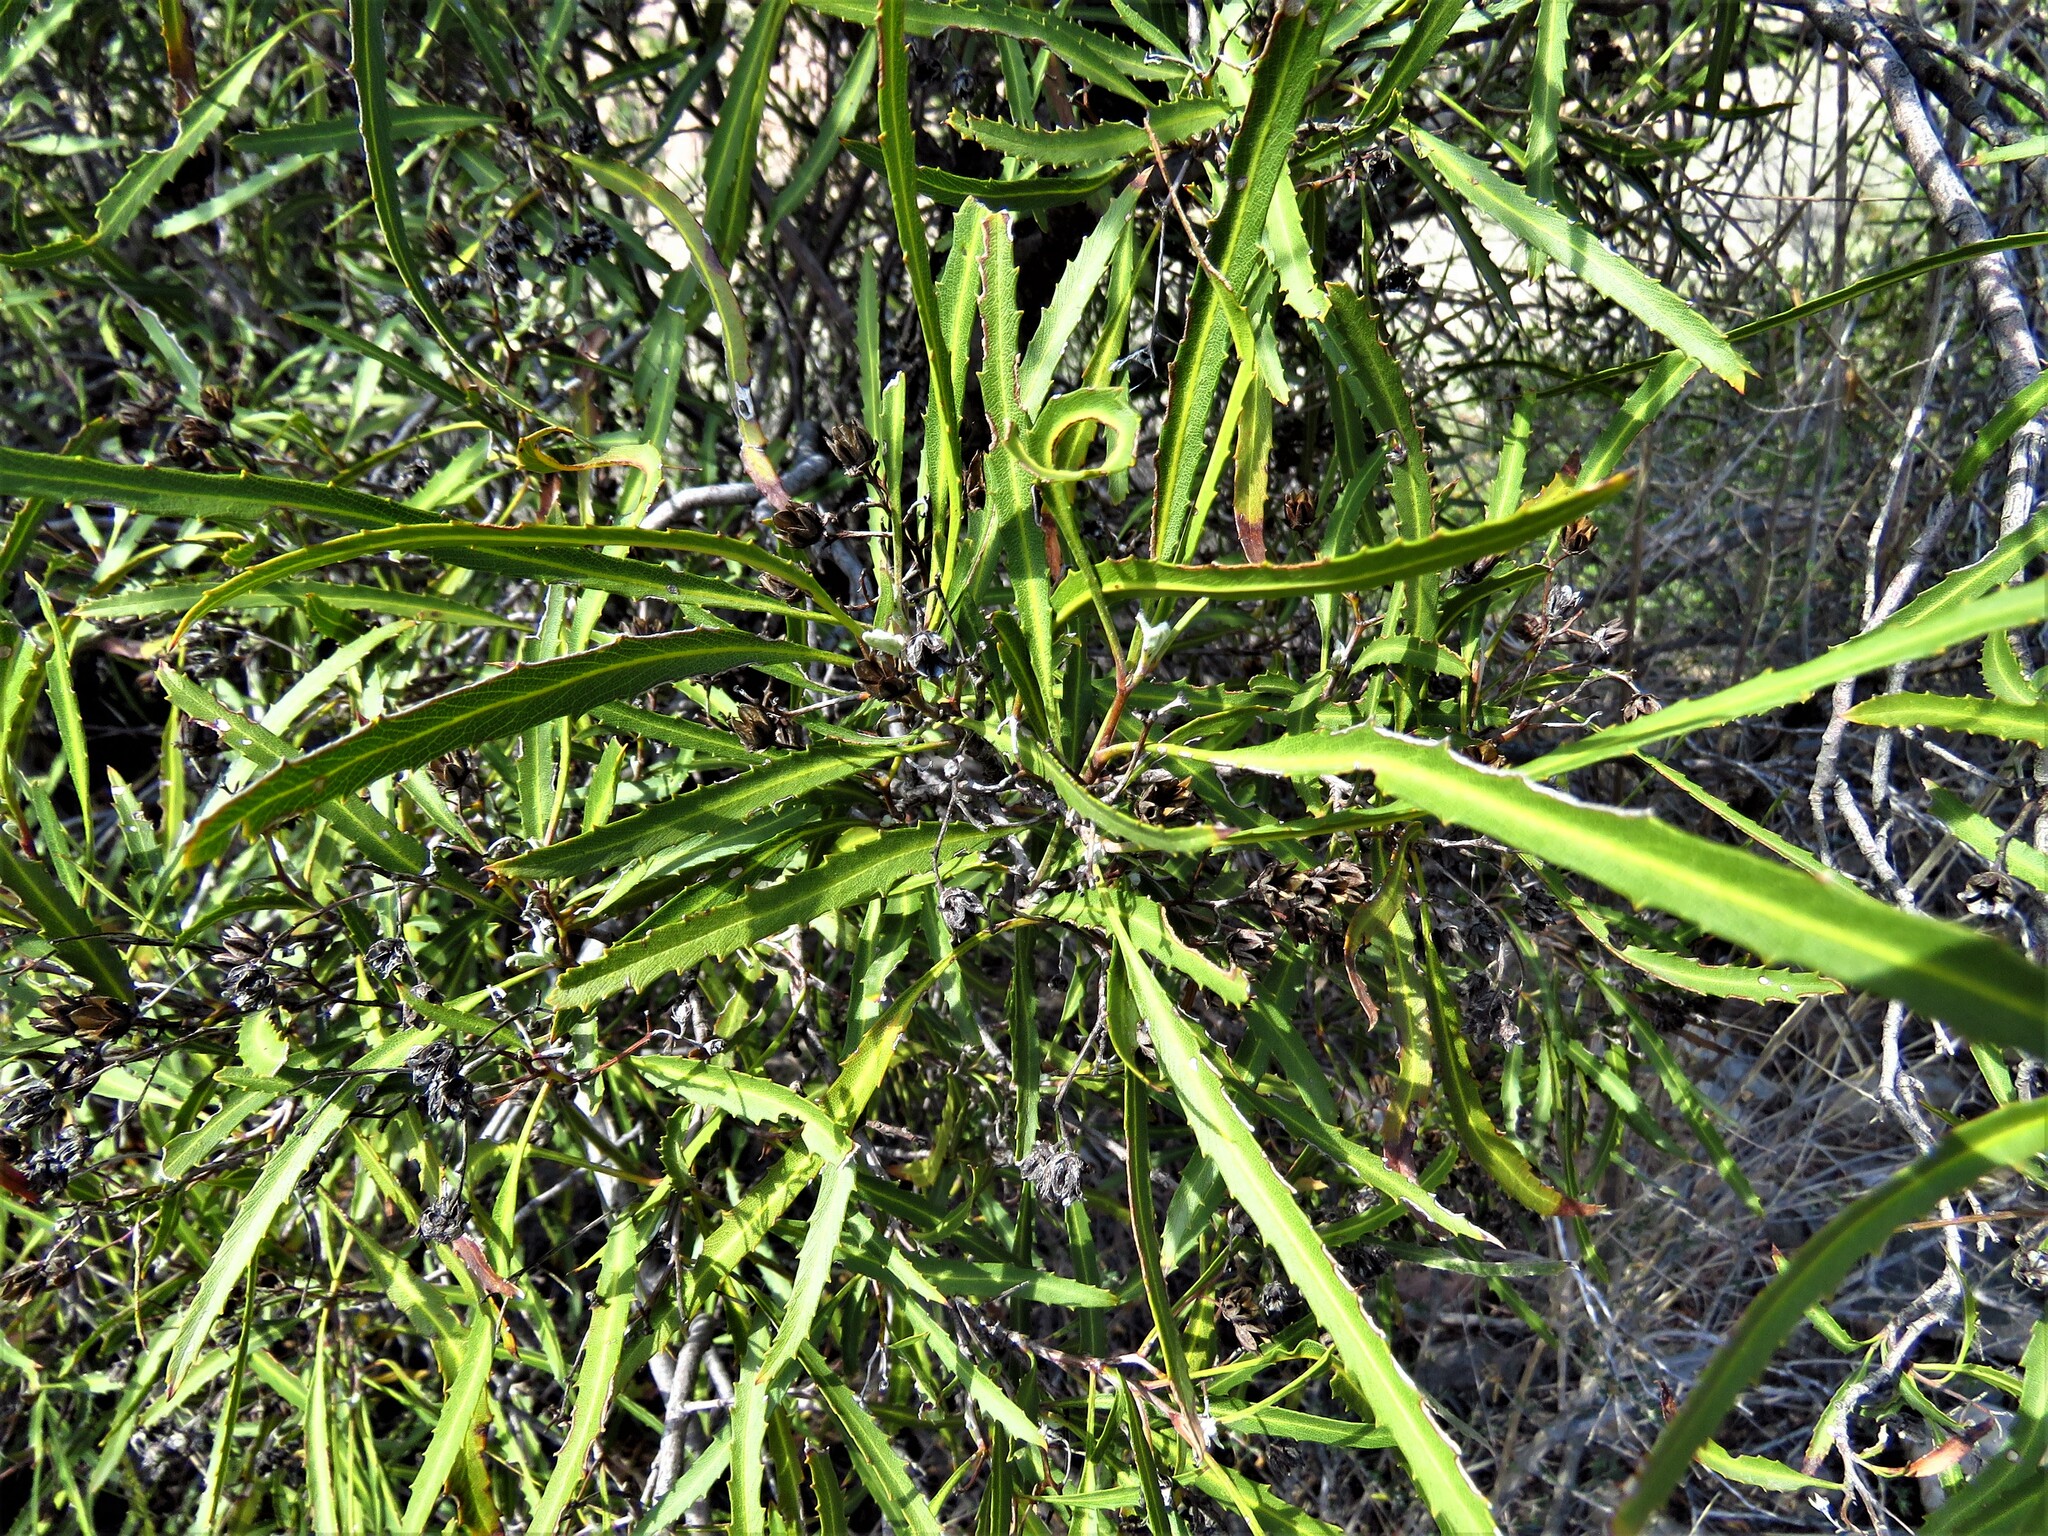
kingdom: Plantae
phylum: Tracheophyta
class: Magnoliopsida
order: Rosales
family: Rosaceae
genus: Vauquelinia
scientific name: Vauquelinia corymbosa
